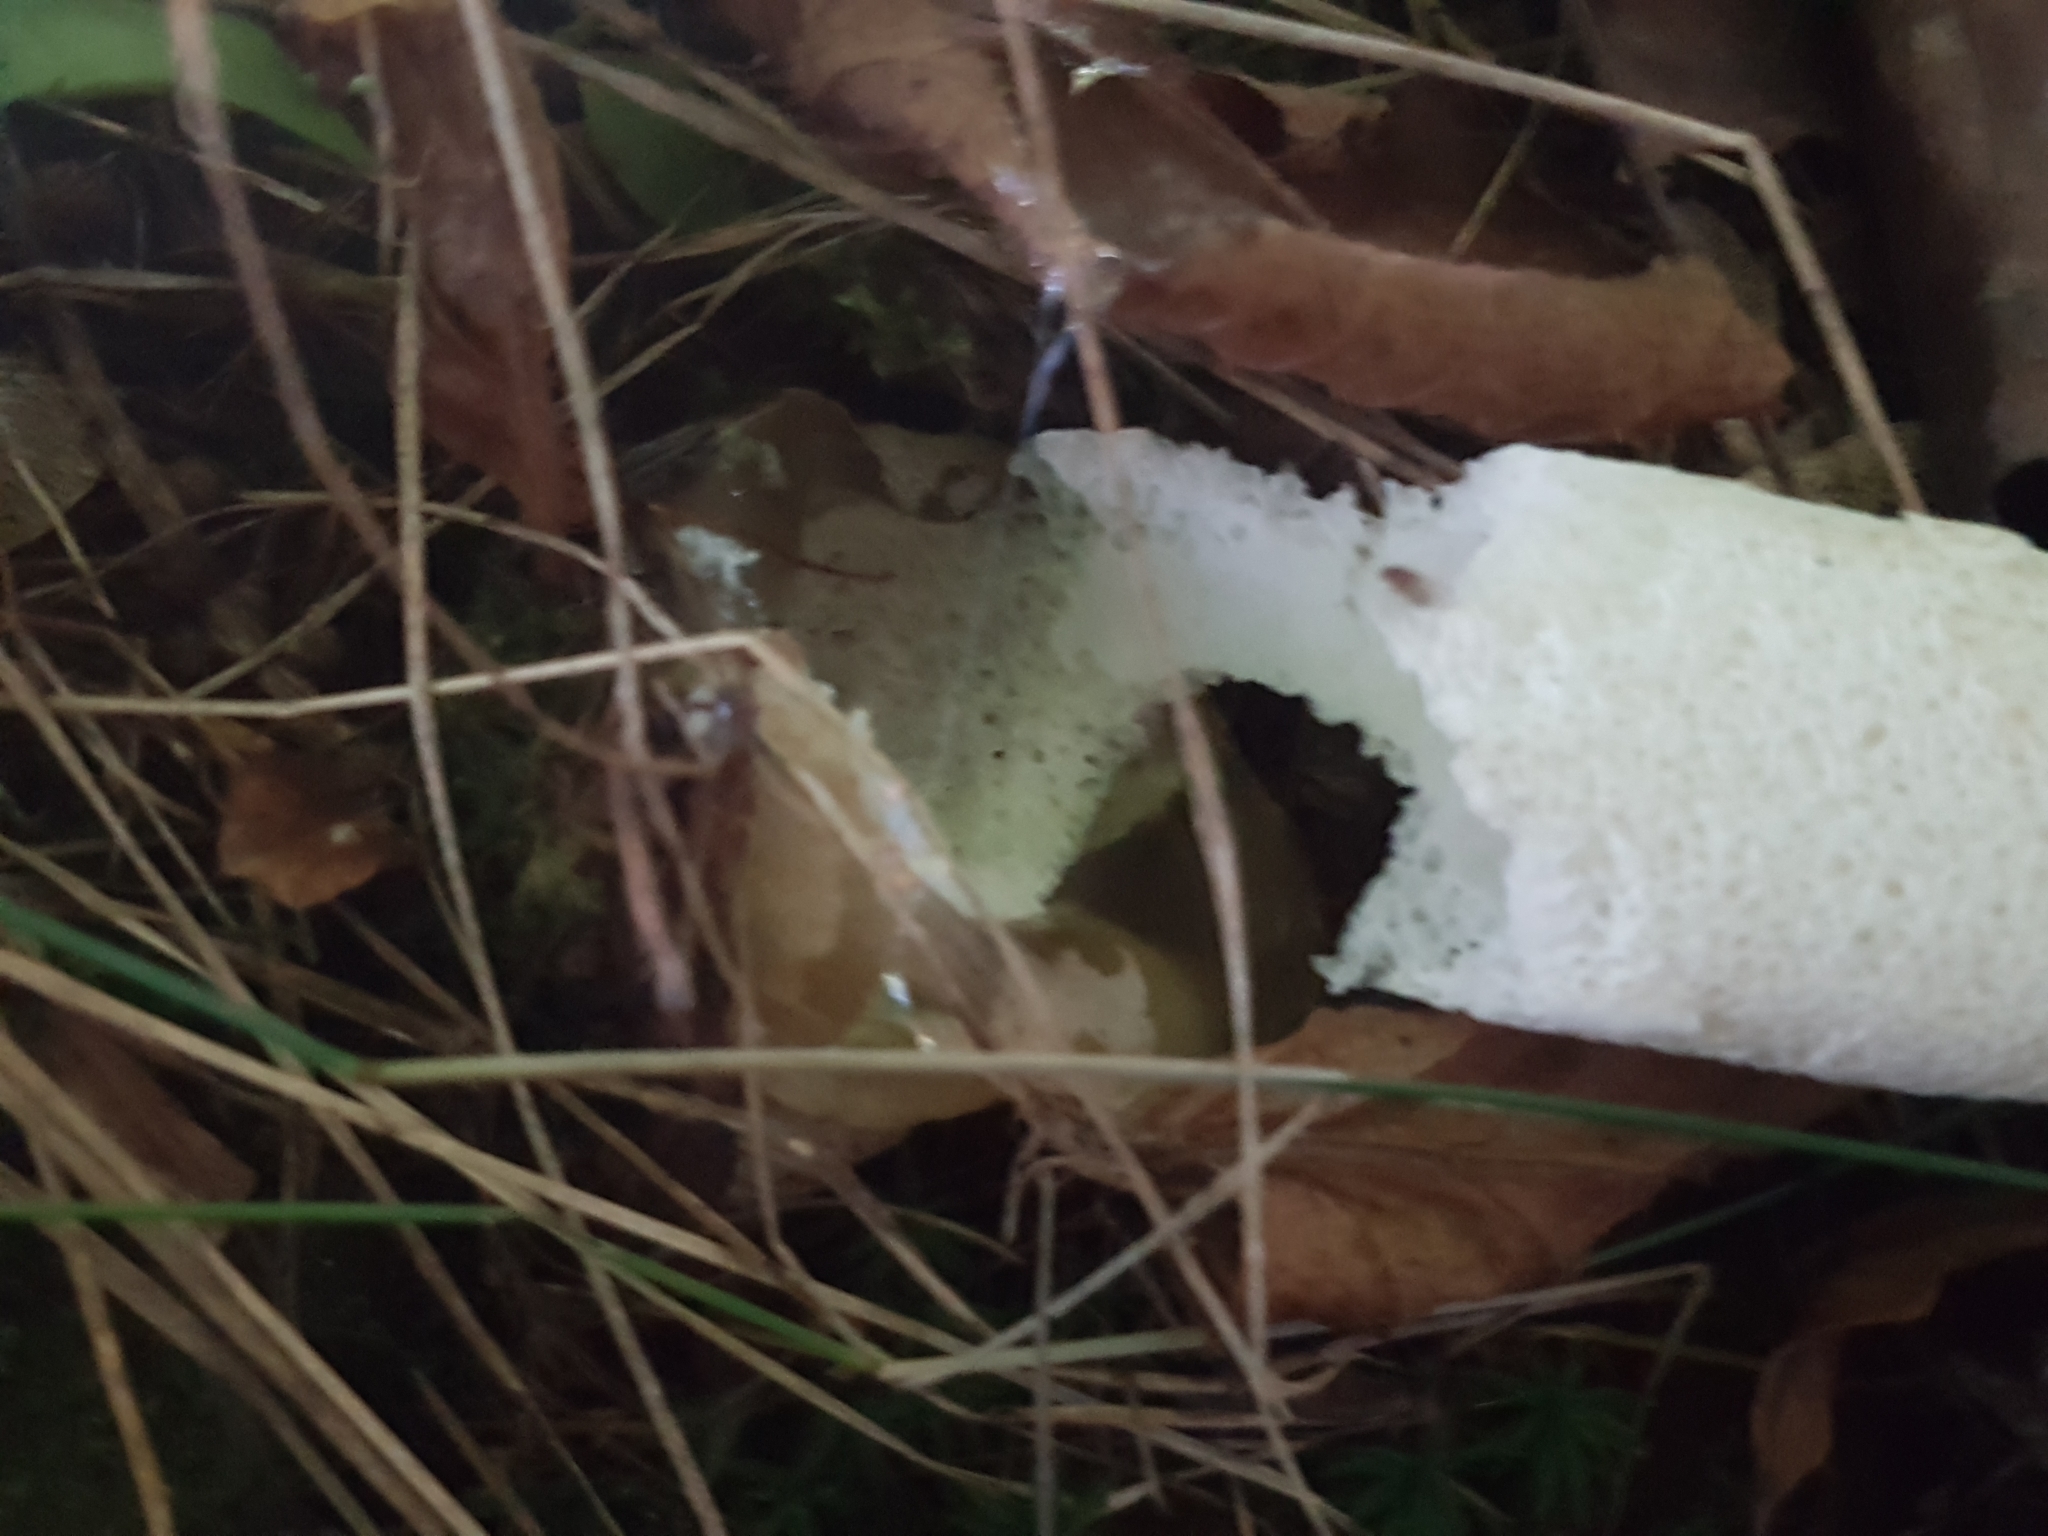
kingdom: Fungi
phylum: Basidiomycota
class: Agaricomycetes
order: Phallales
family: Phallaceae
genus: Phallus
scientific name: Phallus impudicus
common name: Common stinkhorn
